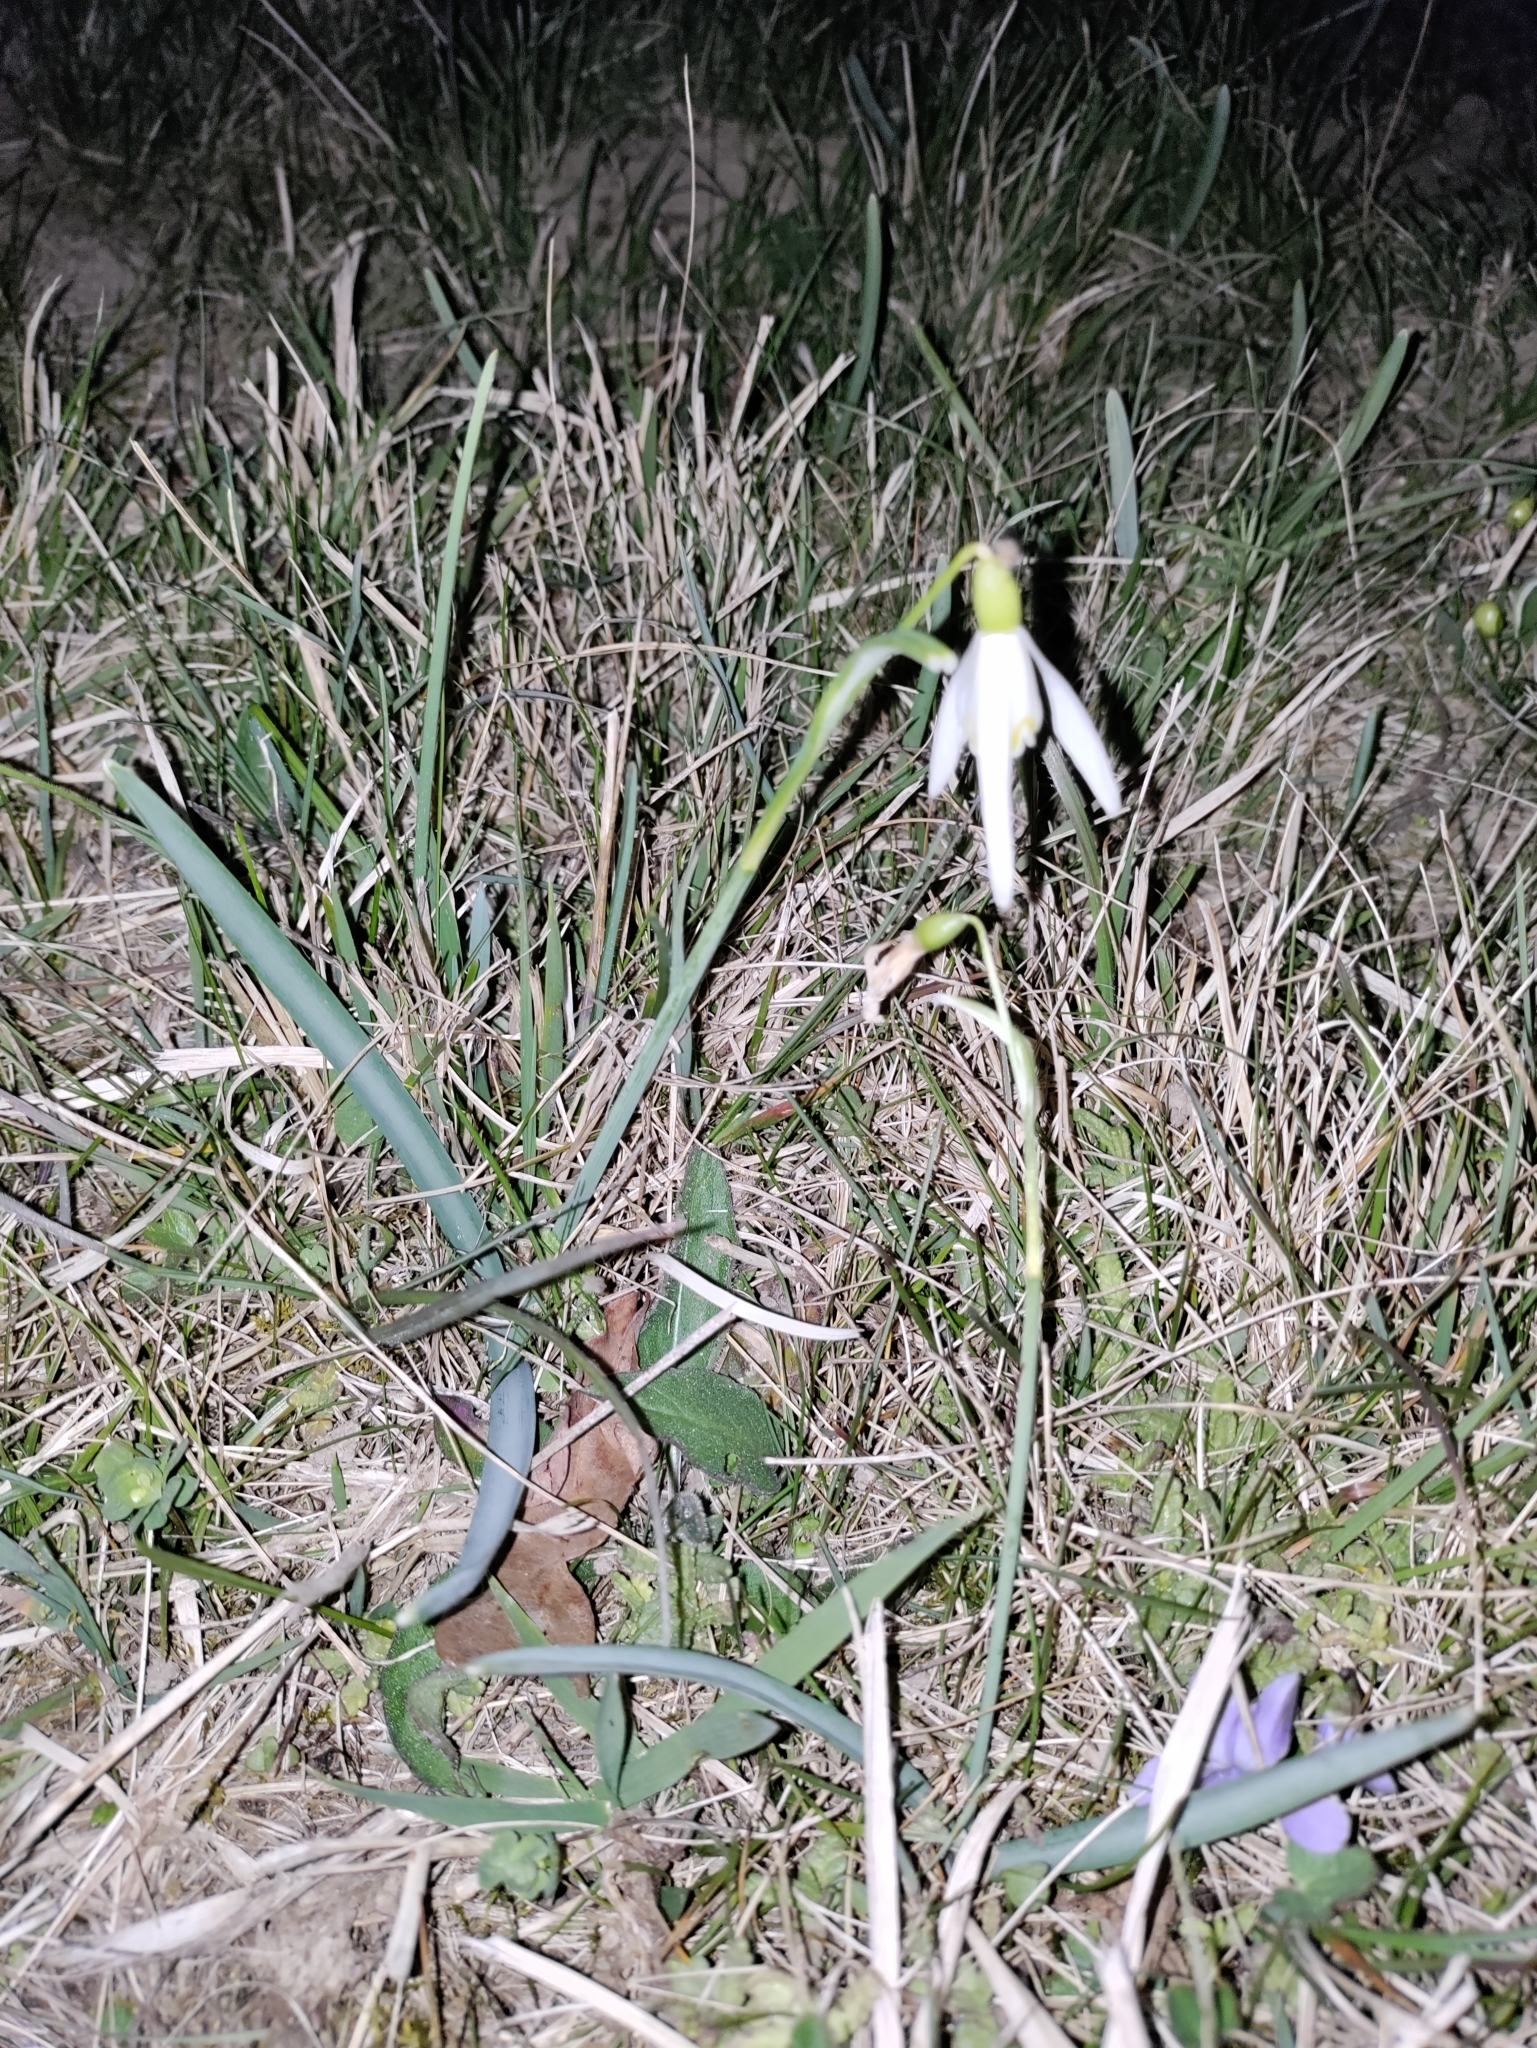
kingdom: Plantae
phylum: Tracheophyta
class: Liliopsida
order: Asparagales
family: Amaryllidaceae
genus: Galanthus
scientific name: Galanthus nivalis
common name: Snowdrop
